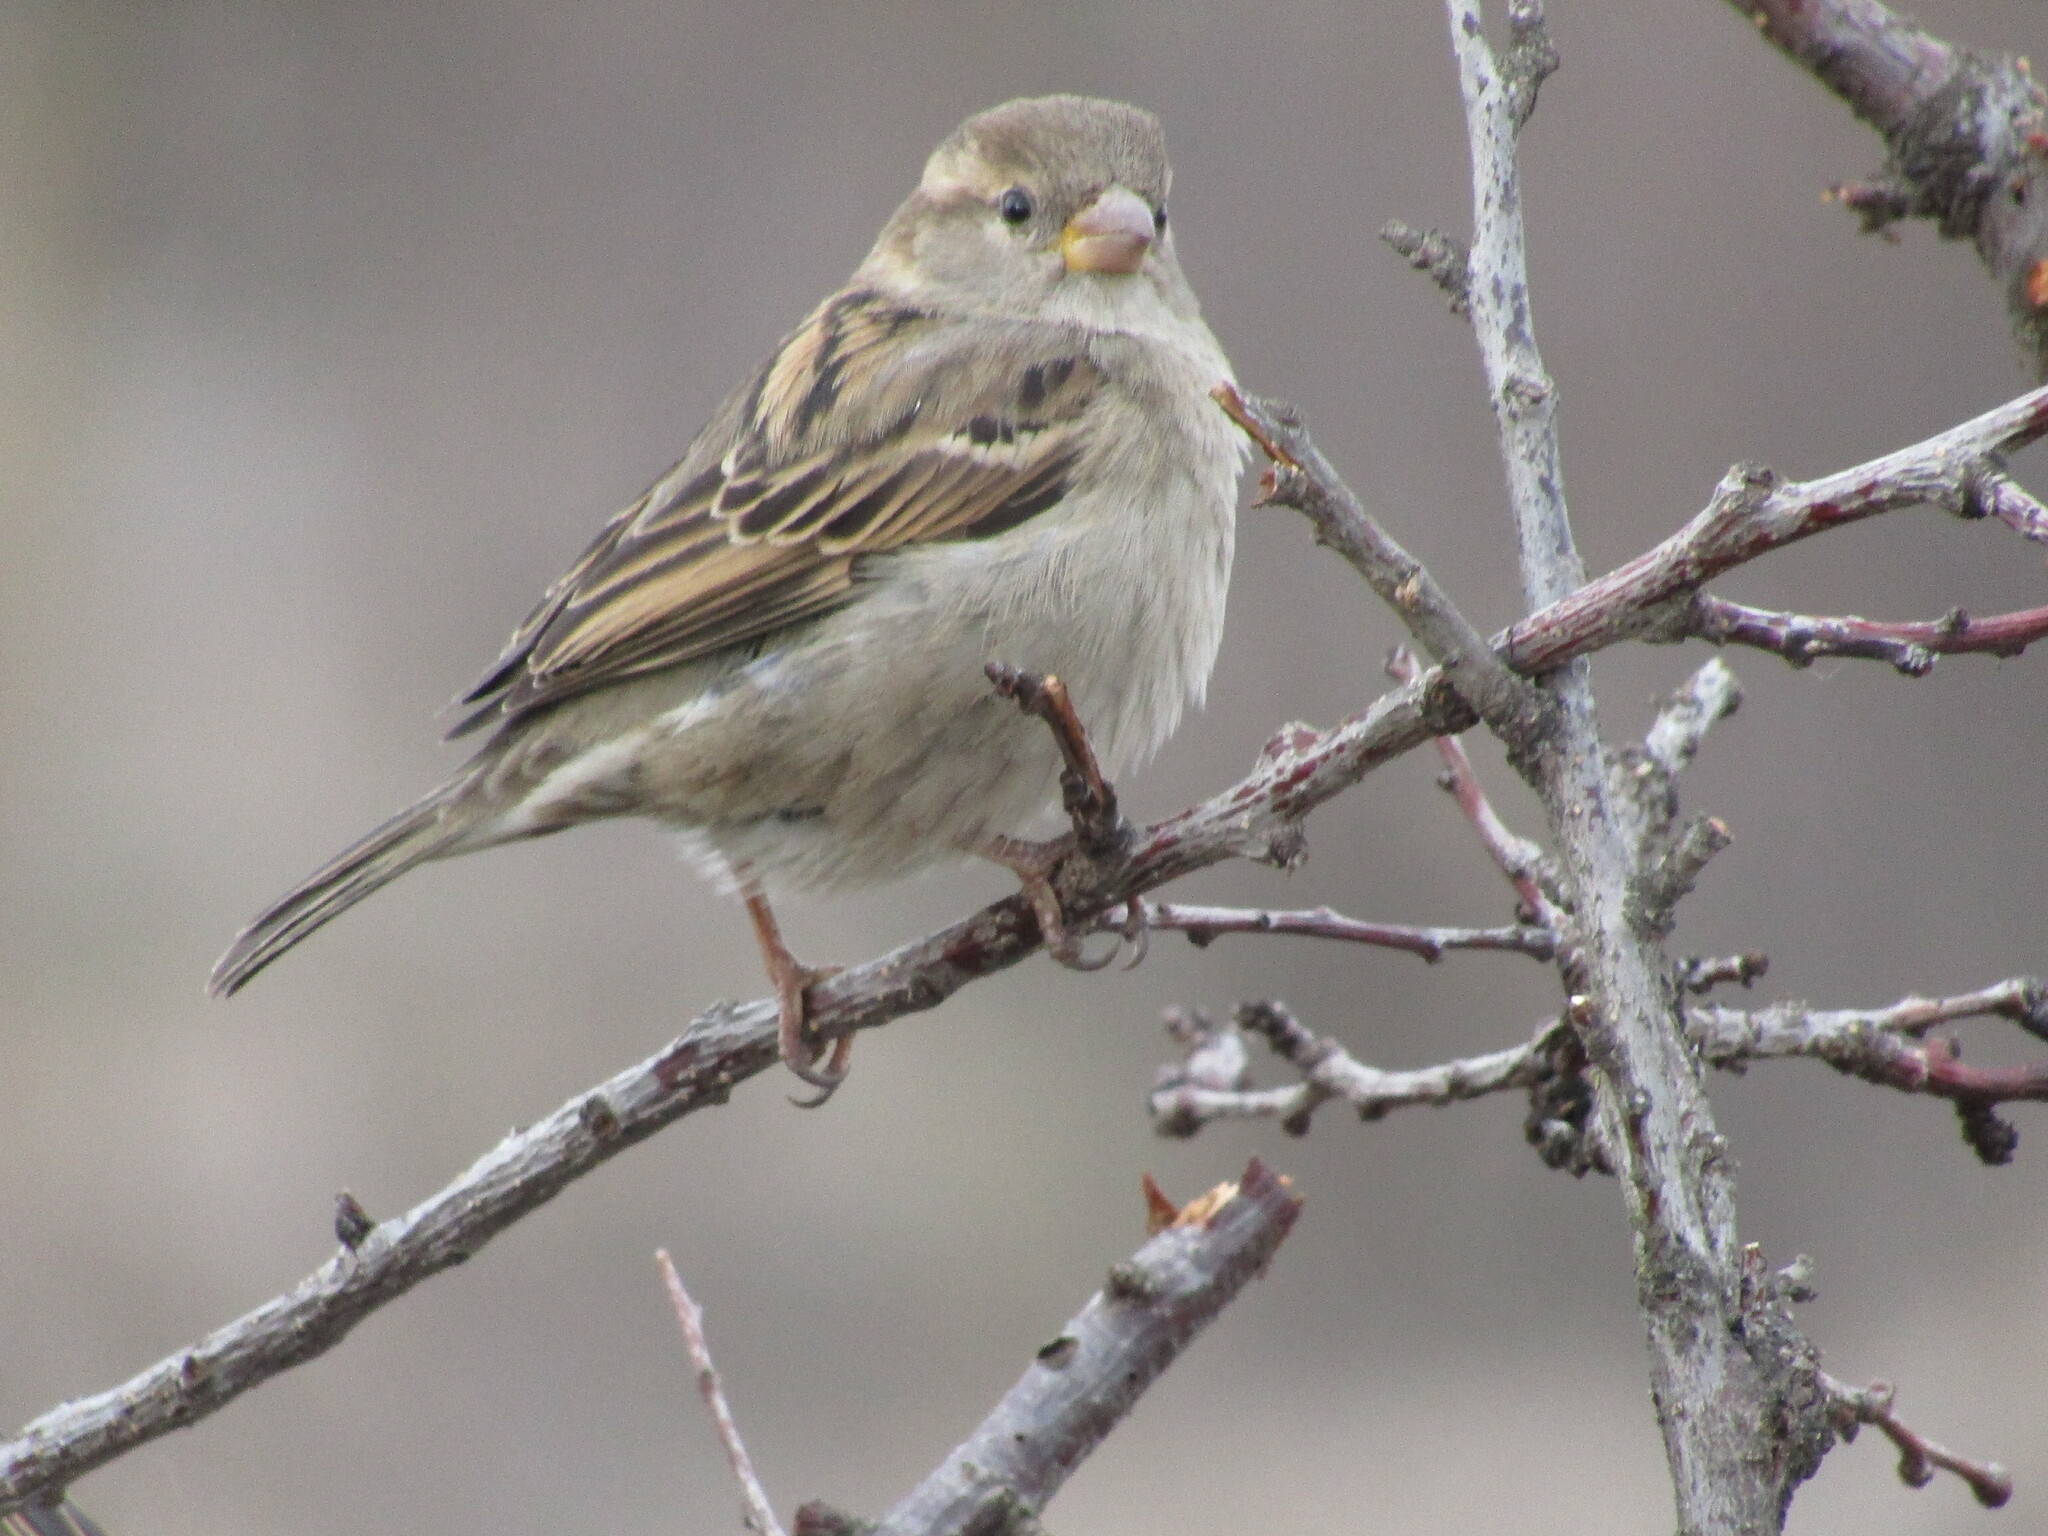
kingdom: Animalia
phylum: Chordata
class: Aves
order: Passeriformes
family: Passeridae
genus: Passer
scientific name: Passer domesticus
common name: House sparrow
